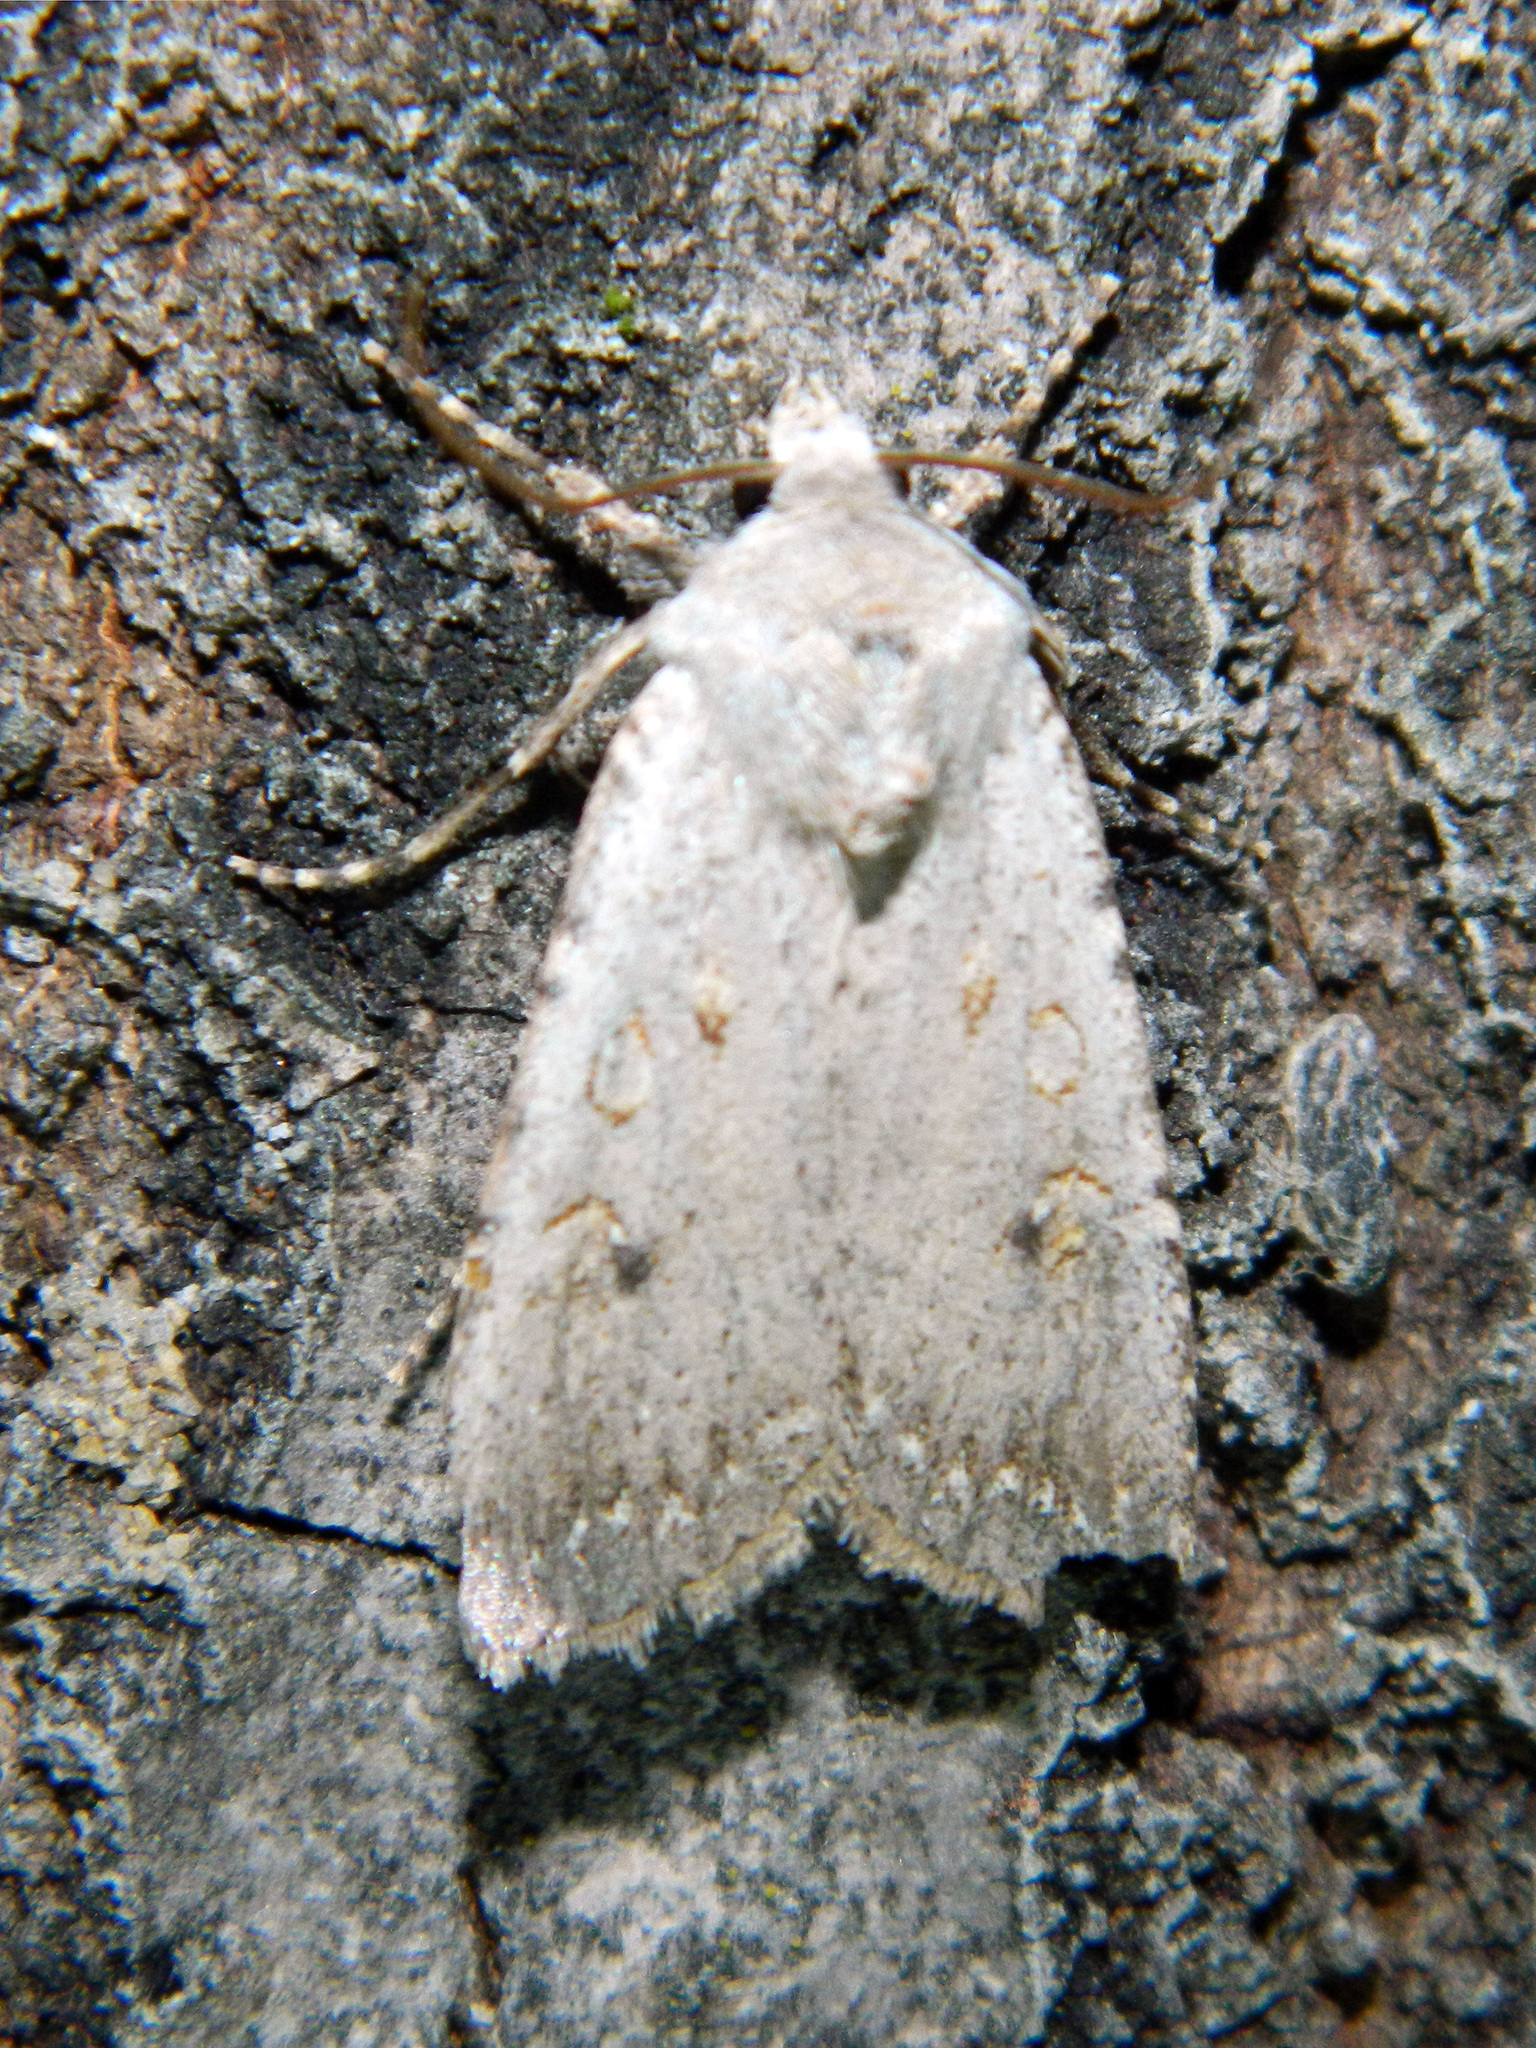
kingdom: Animalia
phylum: Arthropoda
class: Insecta
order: Lepidoptera
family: Noctuidae
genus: Euxoa
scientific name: Euxoa scandens
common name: White cutworm
